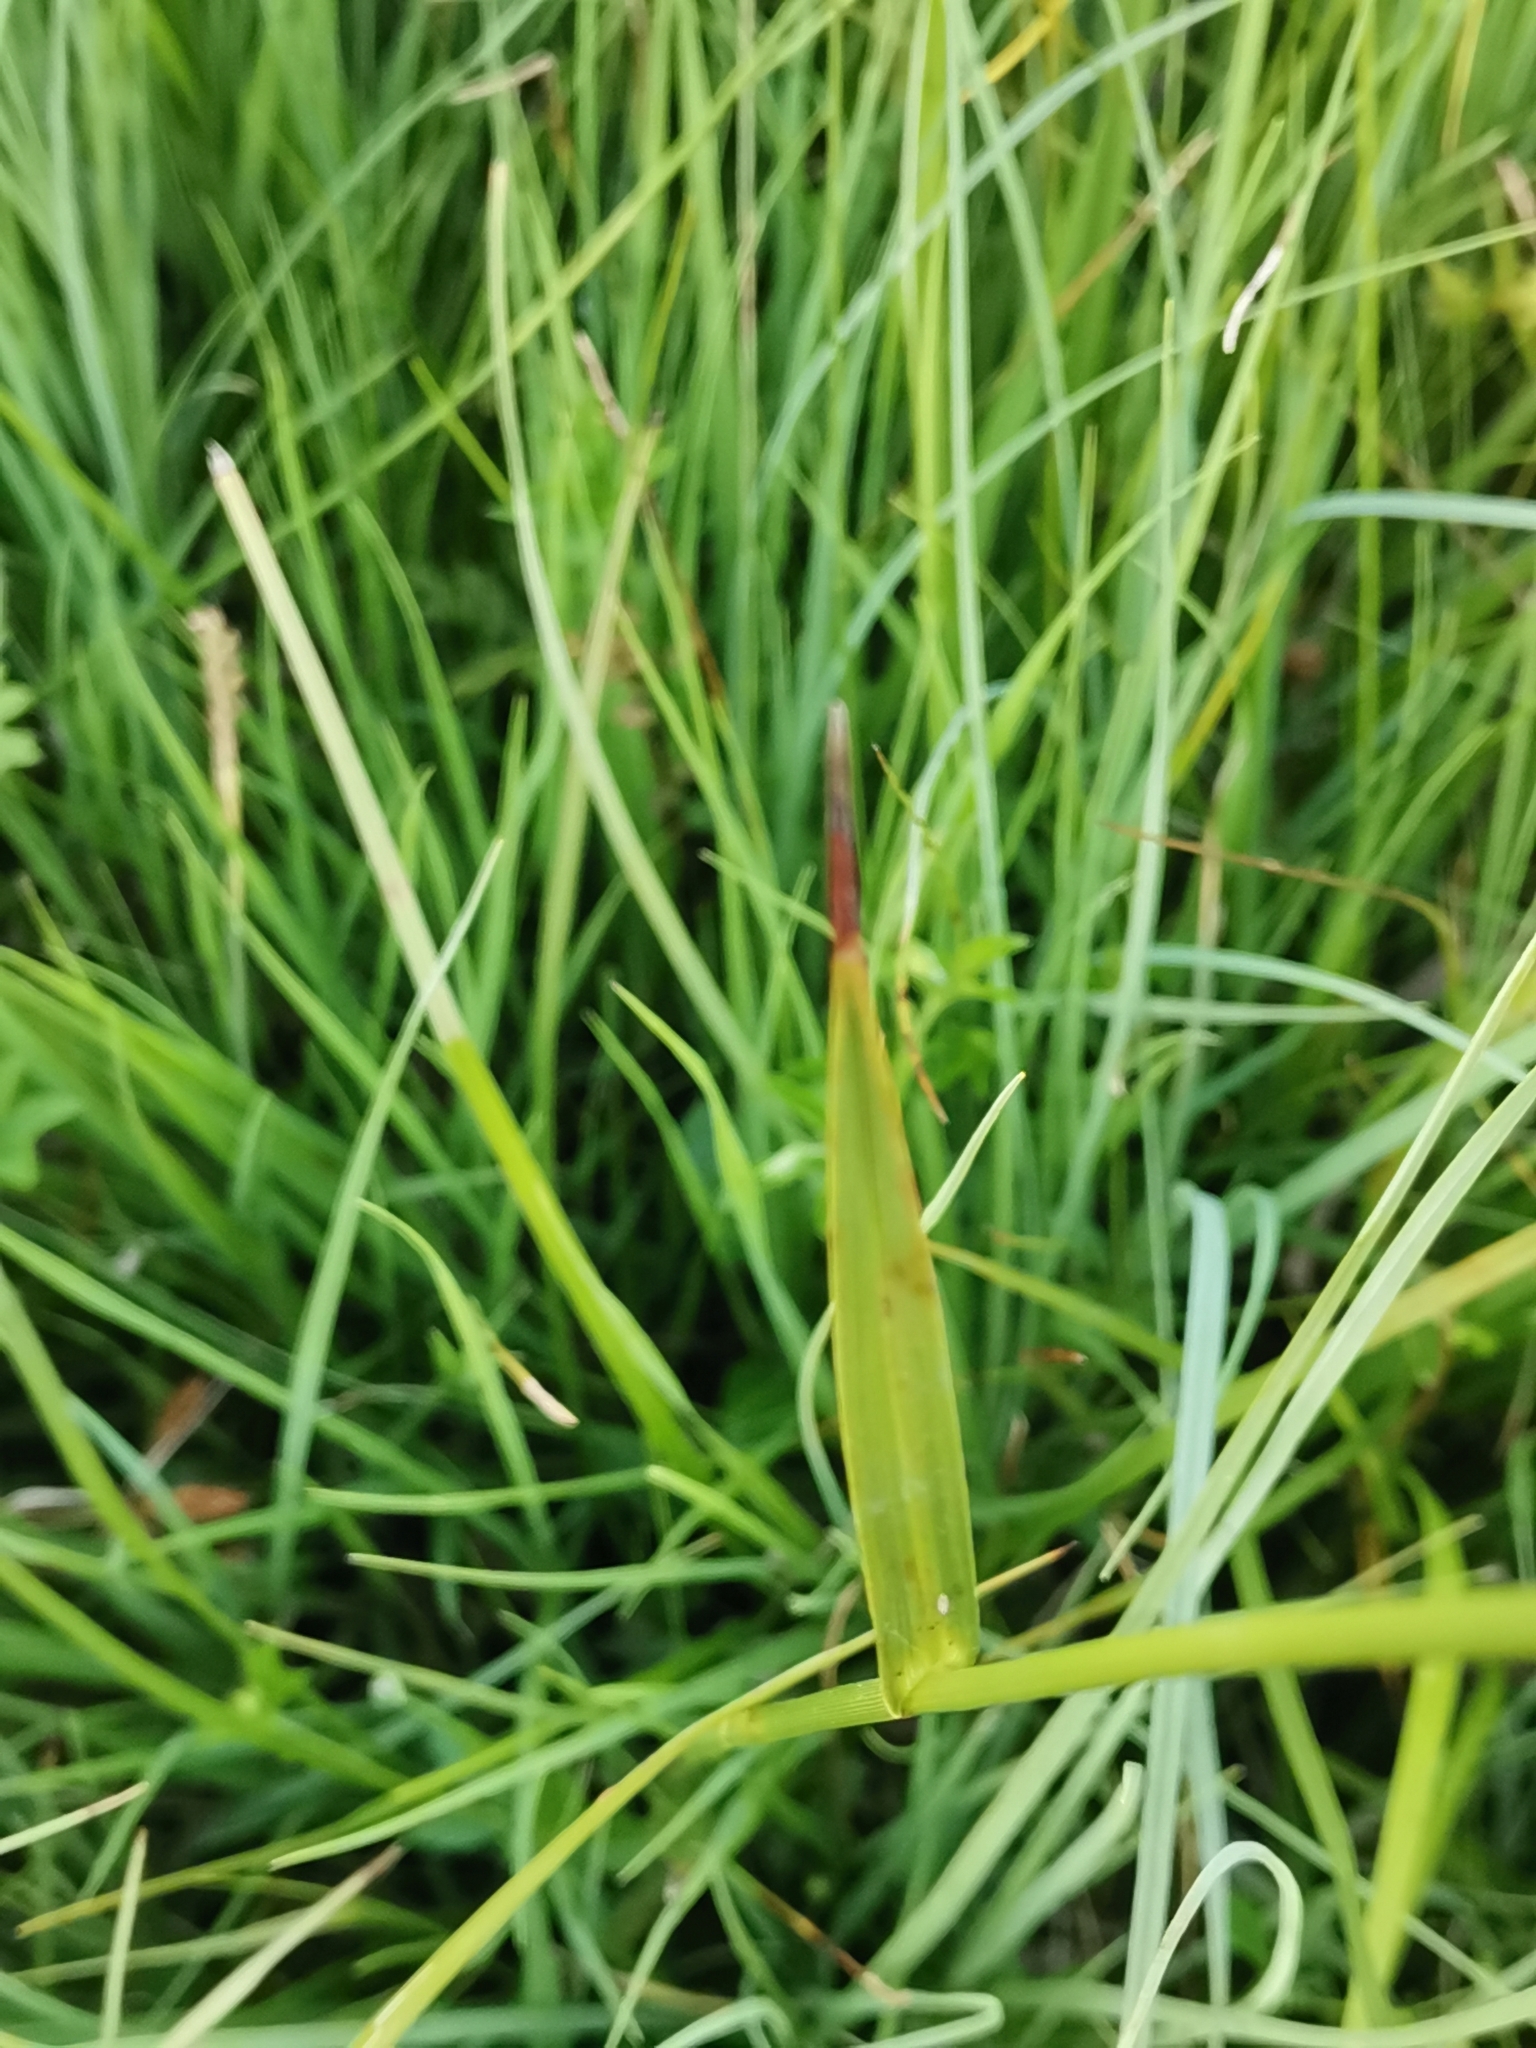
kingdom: Plantae
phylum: Tracheophyta
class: Liliopsida
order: Poales
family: Cyperaceae
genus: Eriophorum
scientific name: Eriophorum latifolium
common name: Broad-leaved cottongrass
